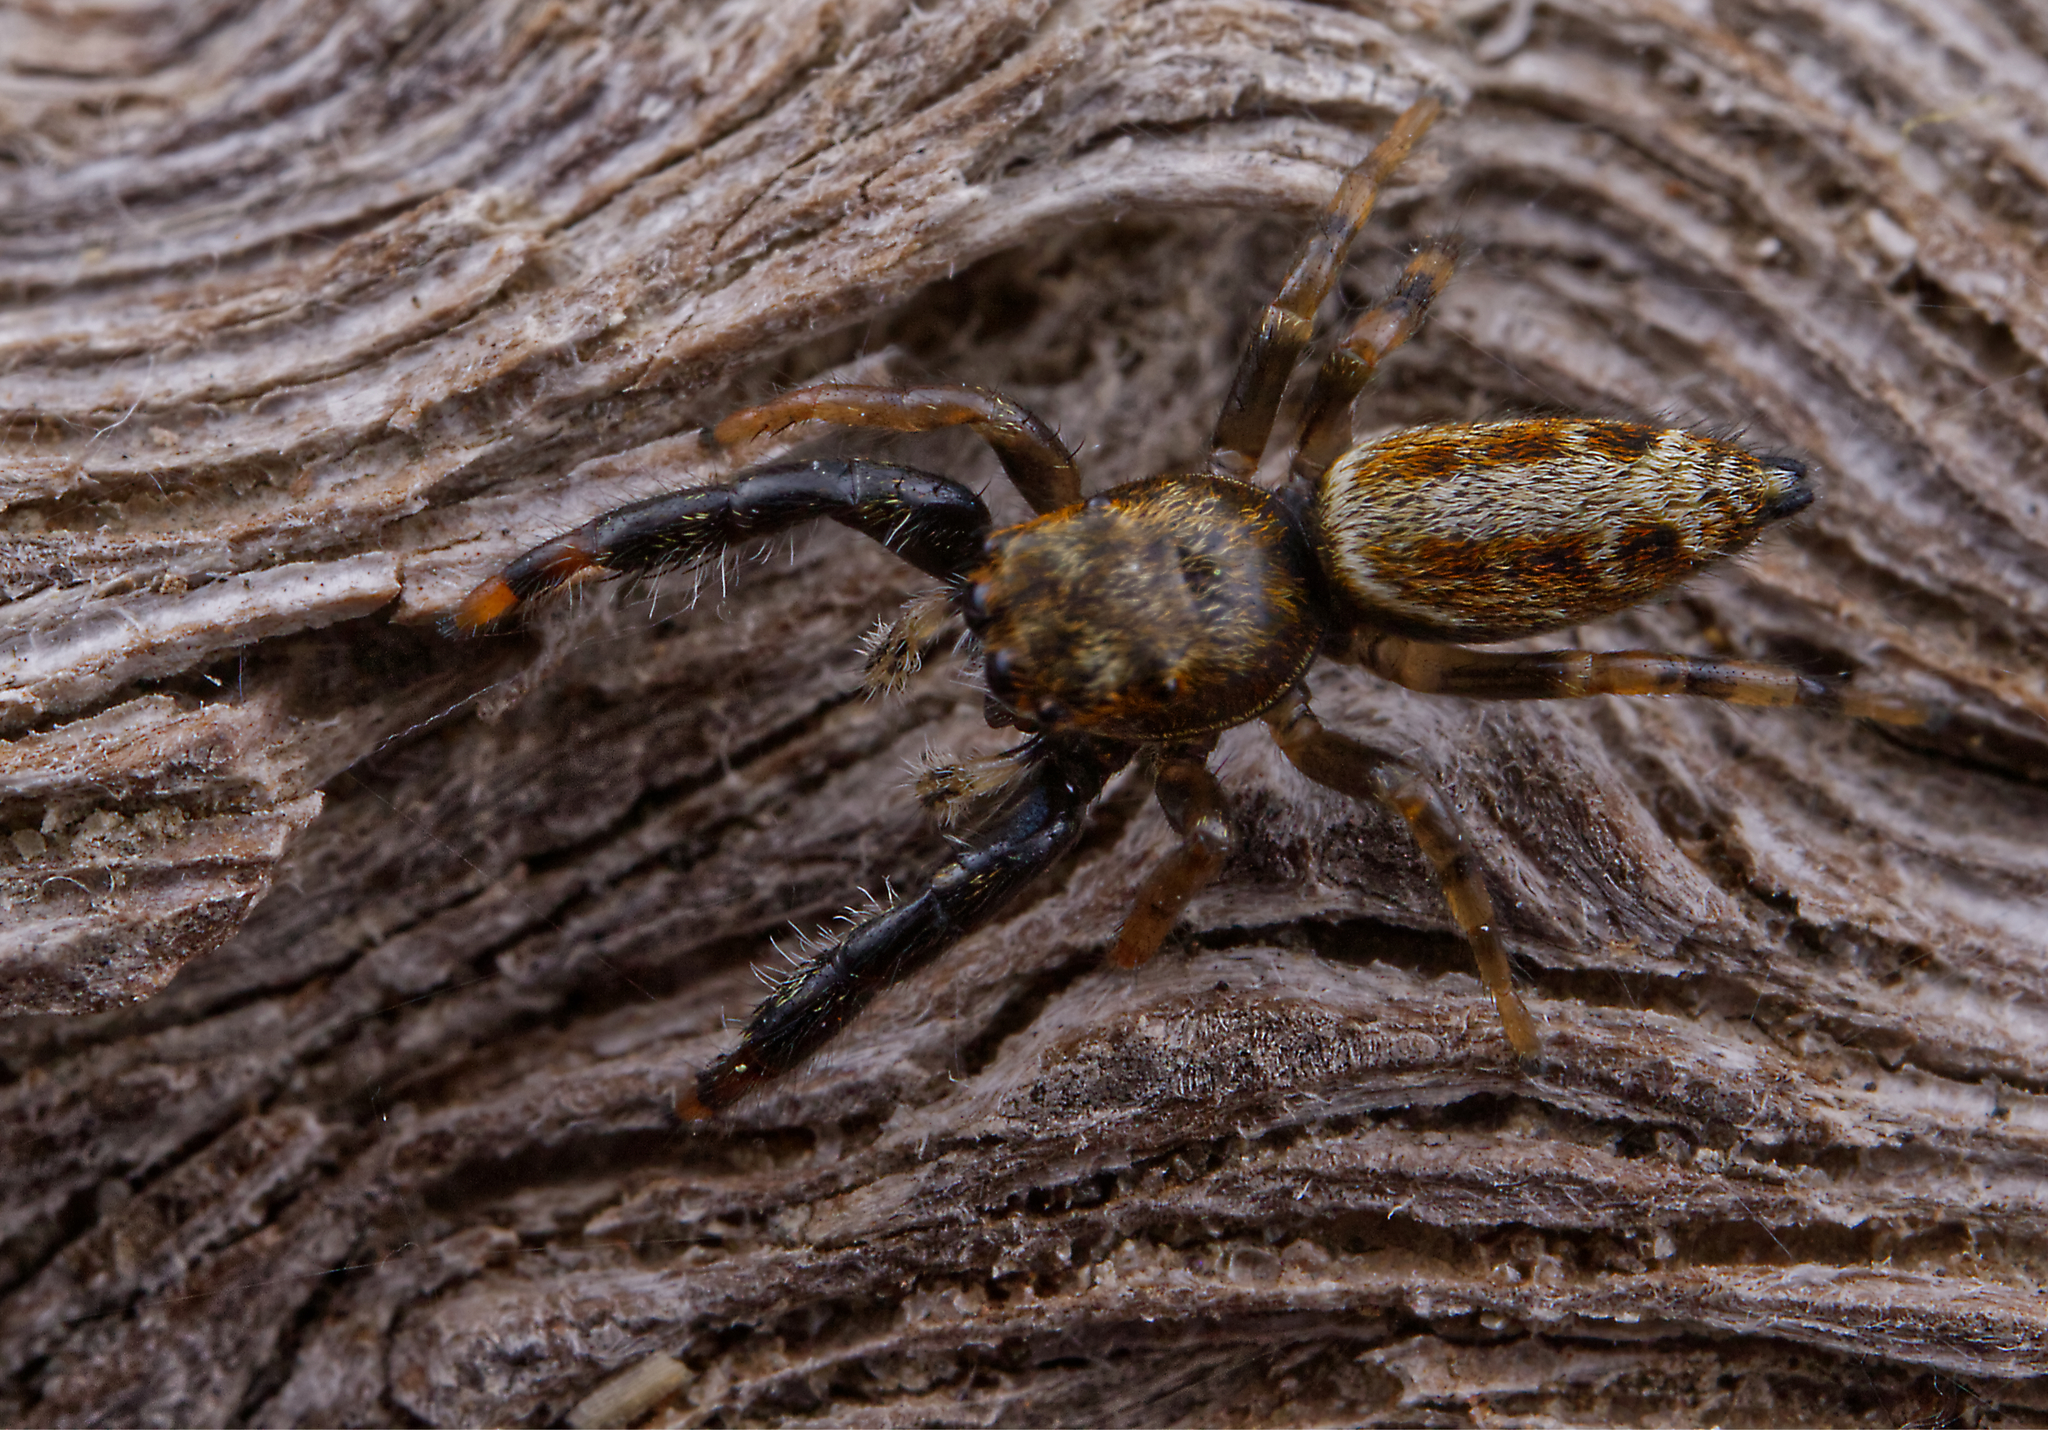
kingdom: Animalia
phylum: Arthropoda
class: Arachnida
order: Araneae
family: Salticidae
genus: Marpissa
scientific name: Marpissa formosa
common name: Short-bellied slender jumping spider
